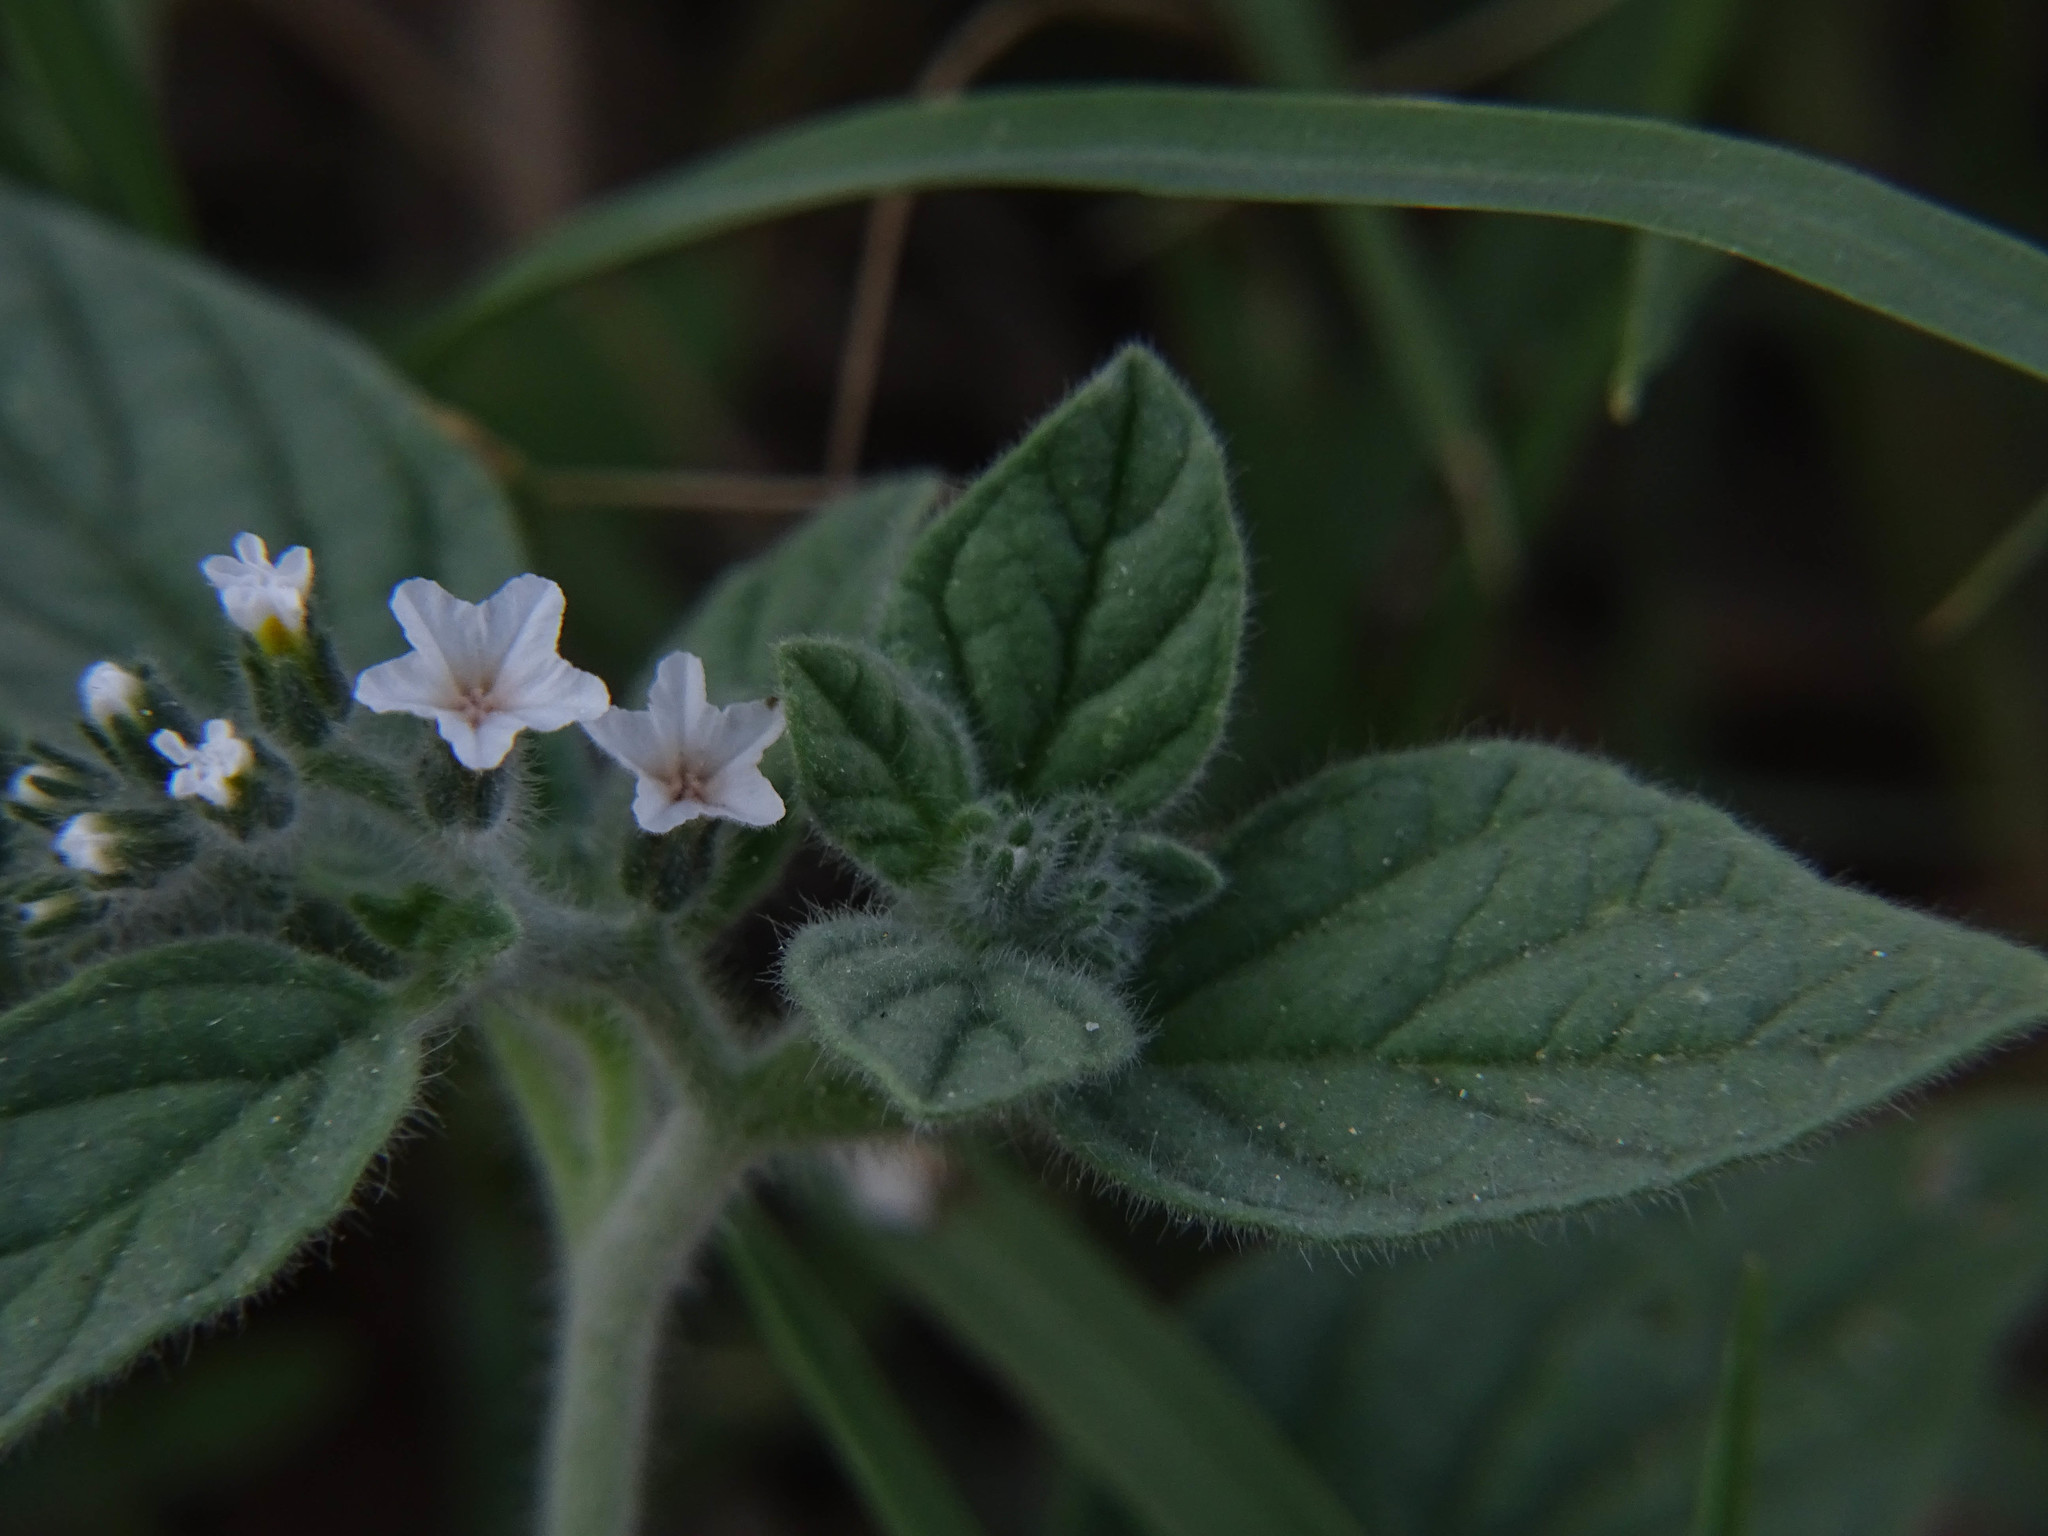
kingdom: Plantae
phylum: Tracheophyta
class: Magnoliopsida
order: Boraginales
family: Heliotropiaceae
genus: Heliotropium
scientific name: Heliotropium hirsutissimum
